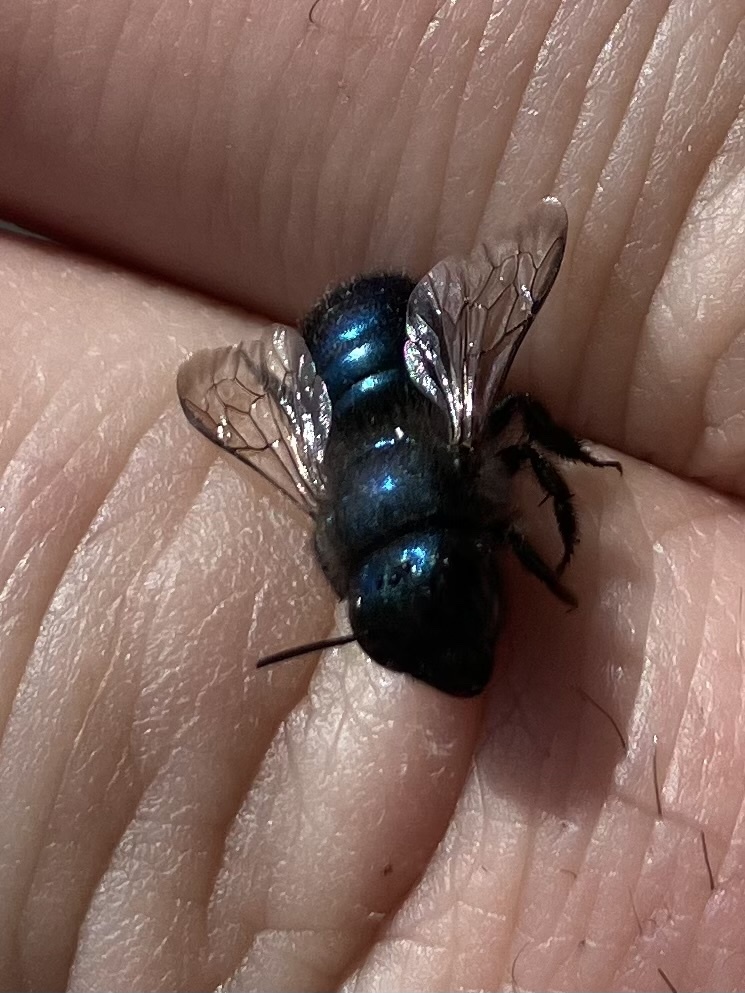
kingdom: Animalia
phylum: Arthropoda
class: Insecta
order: Hymenoptera
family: Megachilidae
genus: Osmia
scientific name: Osmia ribifloris
